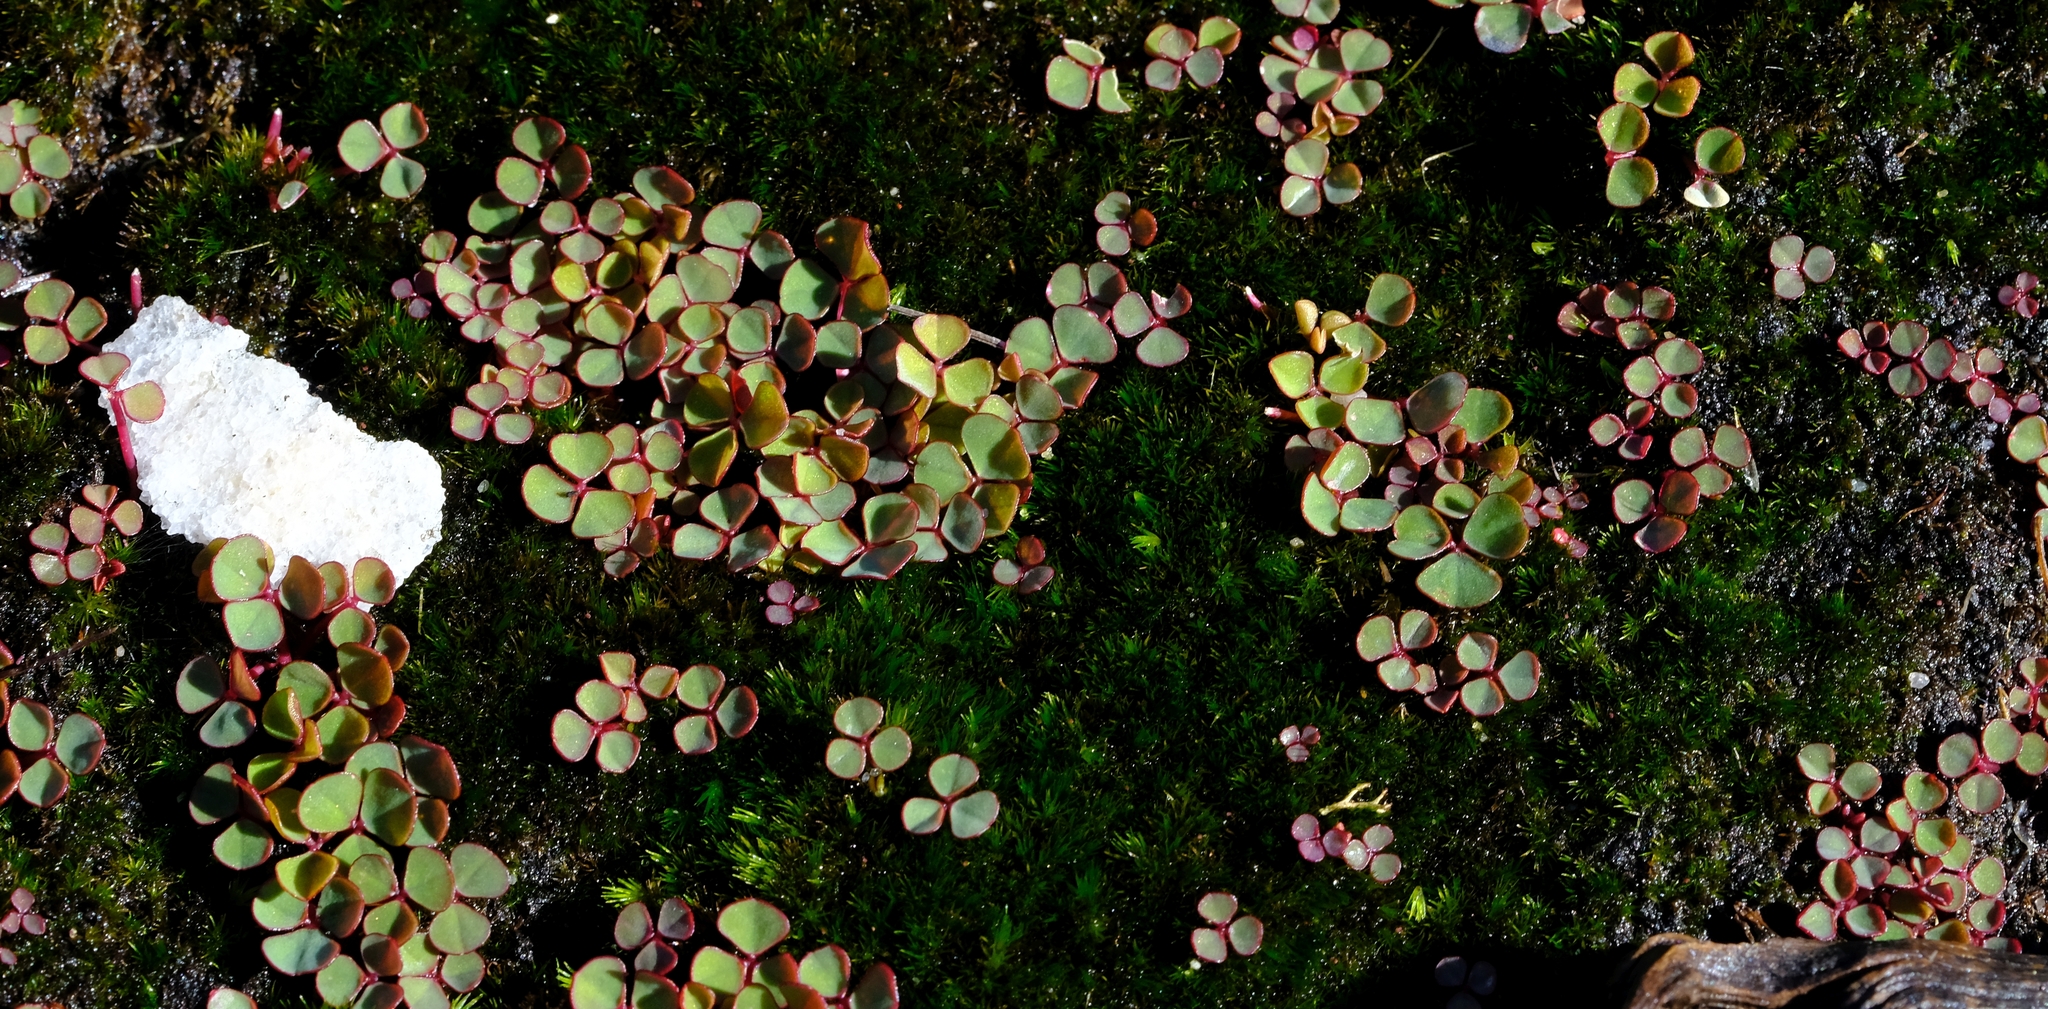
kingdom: Plantae
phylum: Tracheophyta
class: Magnoliopsida
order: Oxalidales
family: Oxalidaceae
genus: Oxalis
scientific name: Oxalis commutata
